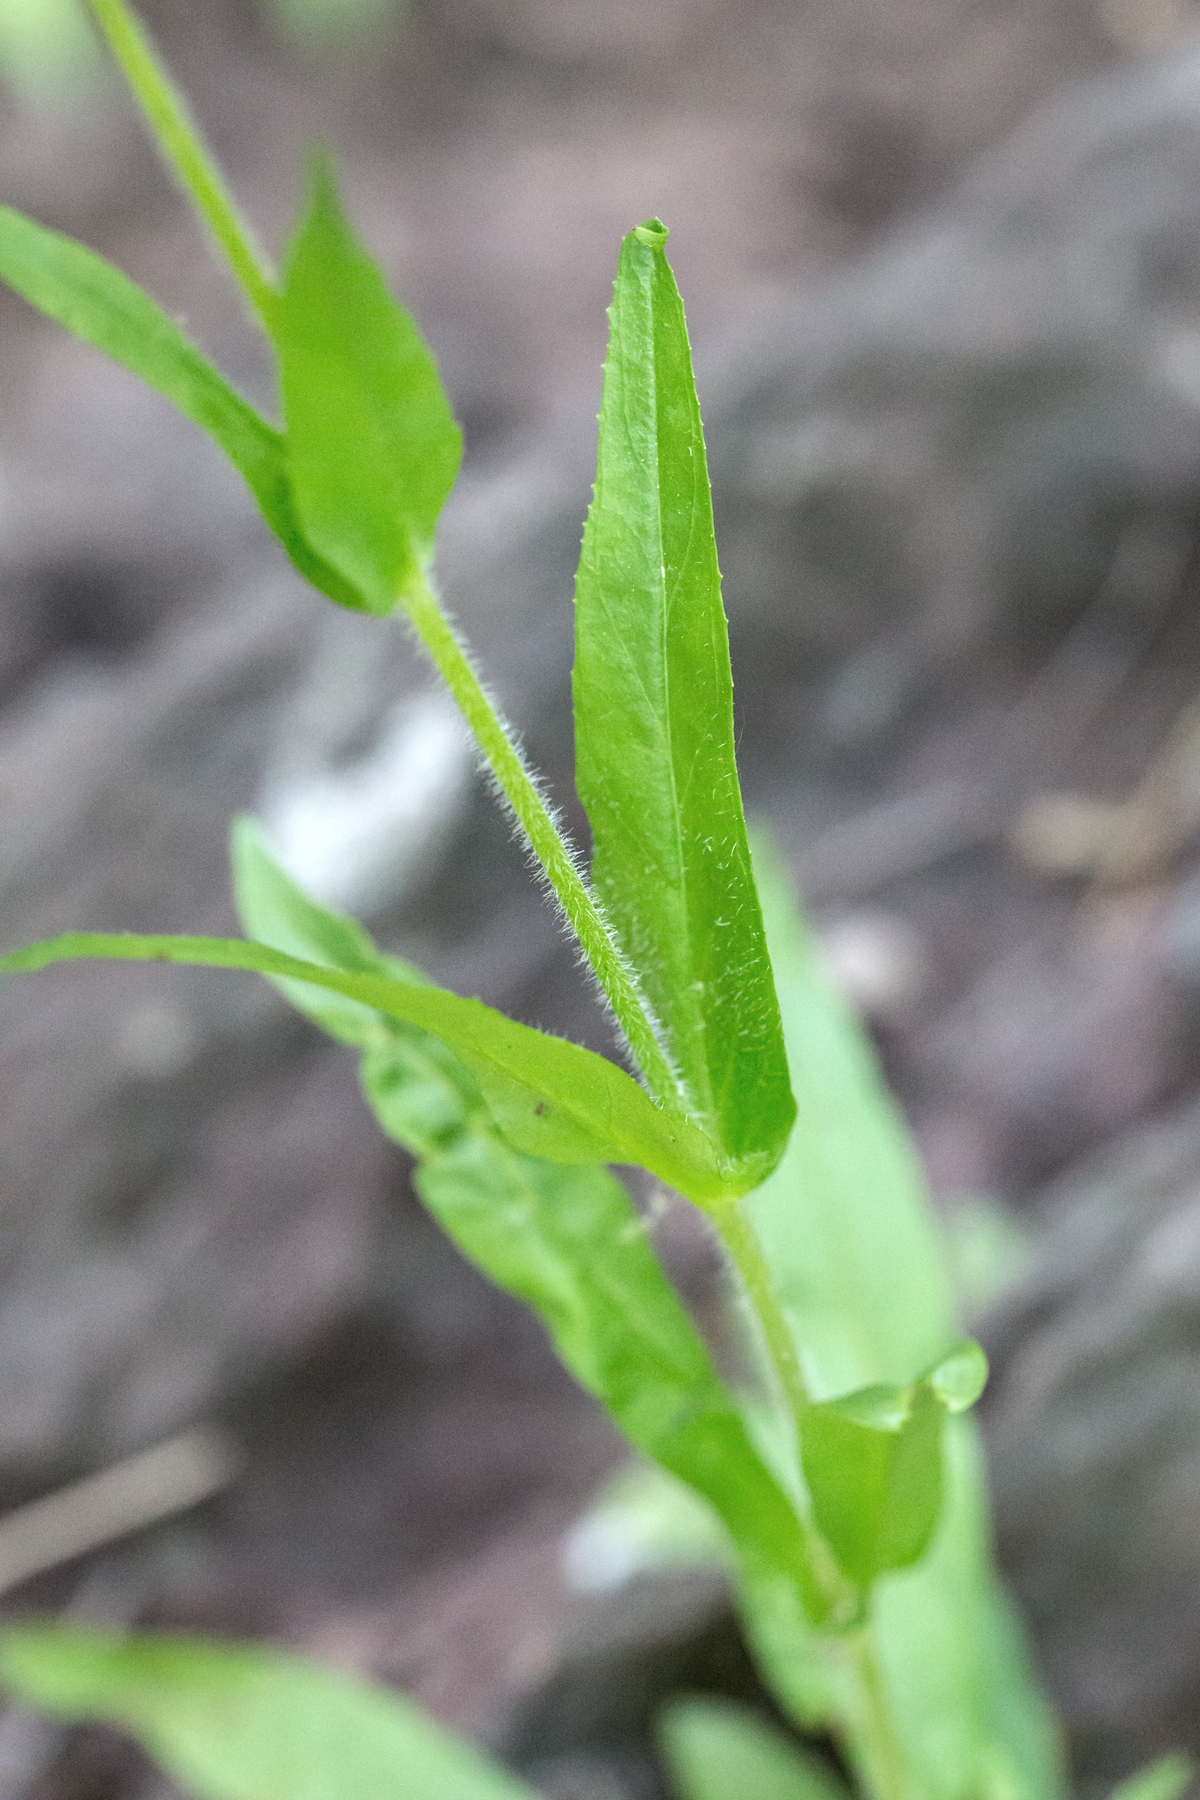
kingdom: Plantae
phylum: Tracheophyta
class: Magnoliopsida
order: Lamiales
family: Plantaginaceae
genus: Penstemon
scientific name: Penstemon hirsutus
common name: Hairy beardtongue
